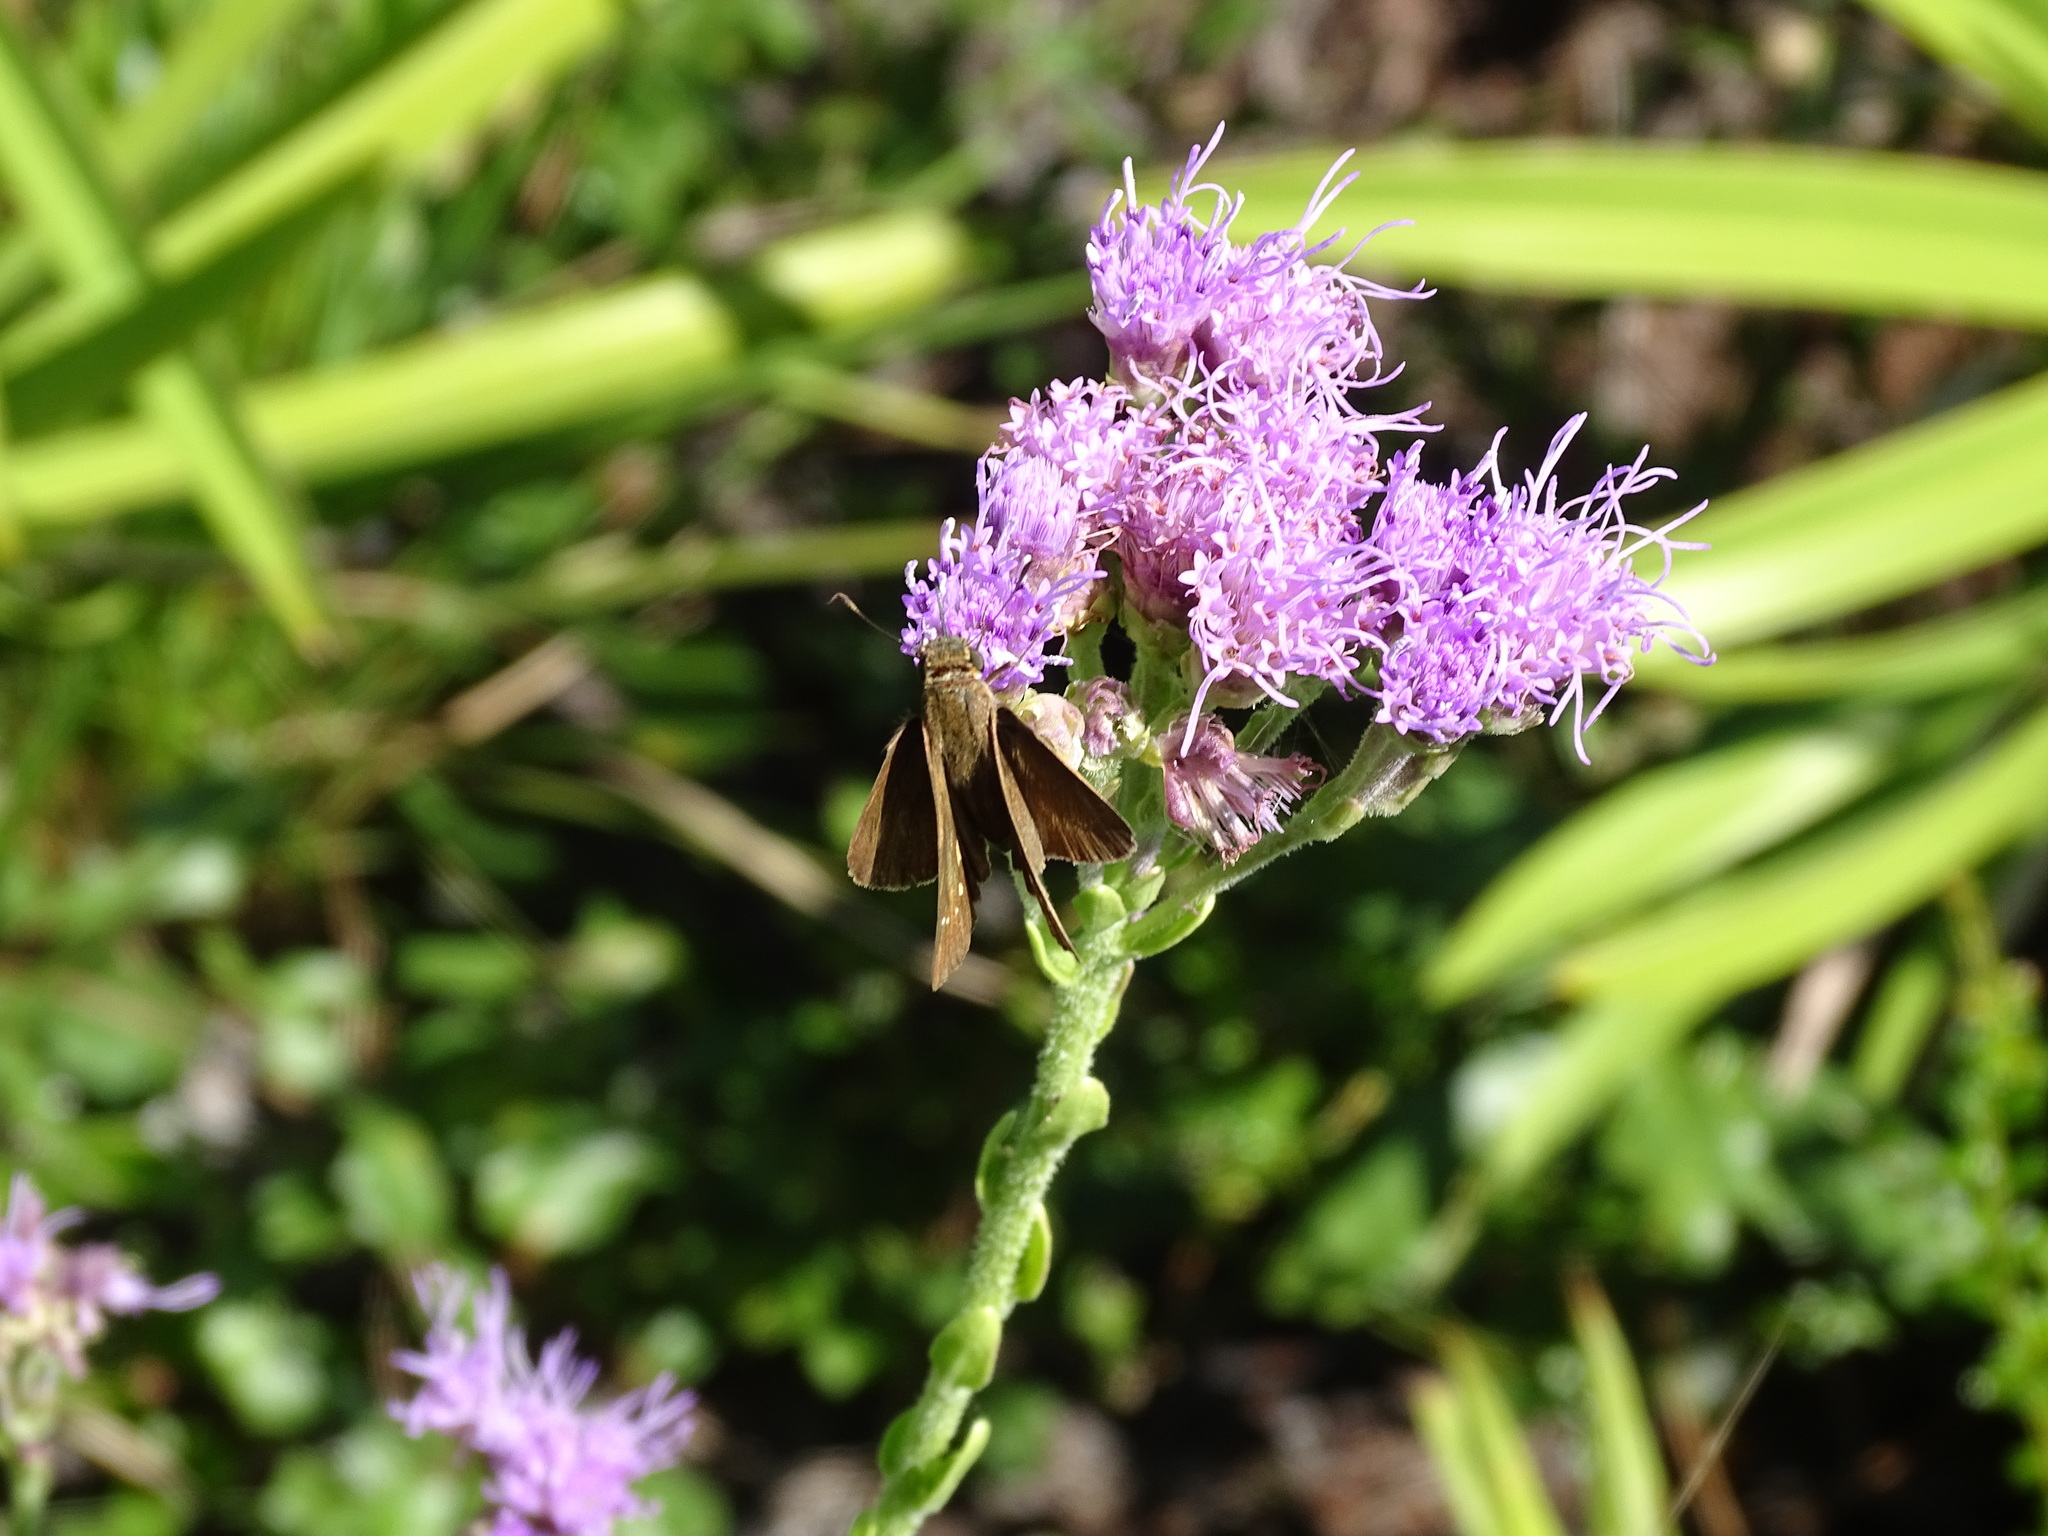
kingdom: Animalia
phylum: Arthropoda
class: Insecta
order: Lepidoptera
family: Hesperiidae
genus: Panoquina
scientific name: Panoquina ocola
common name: Ocola skipper
